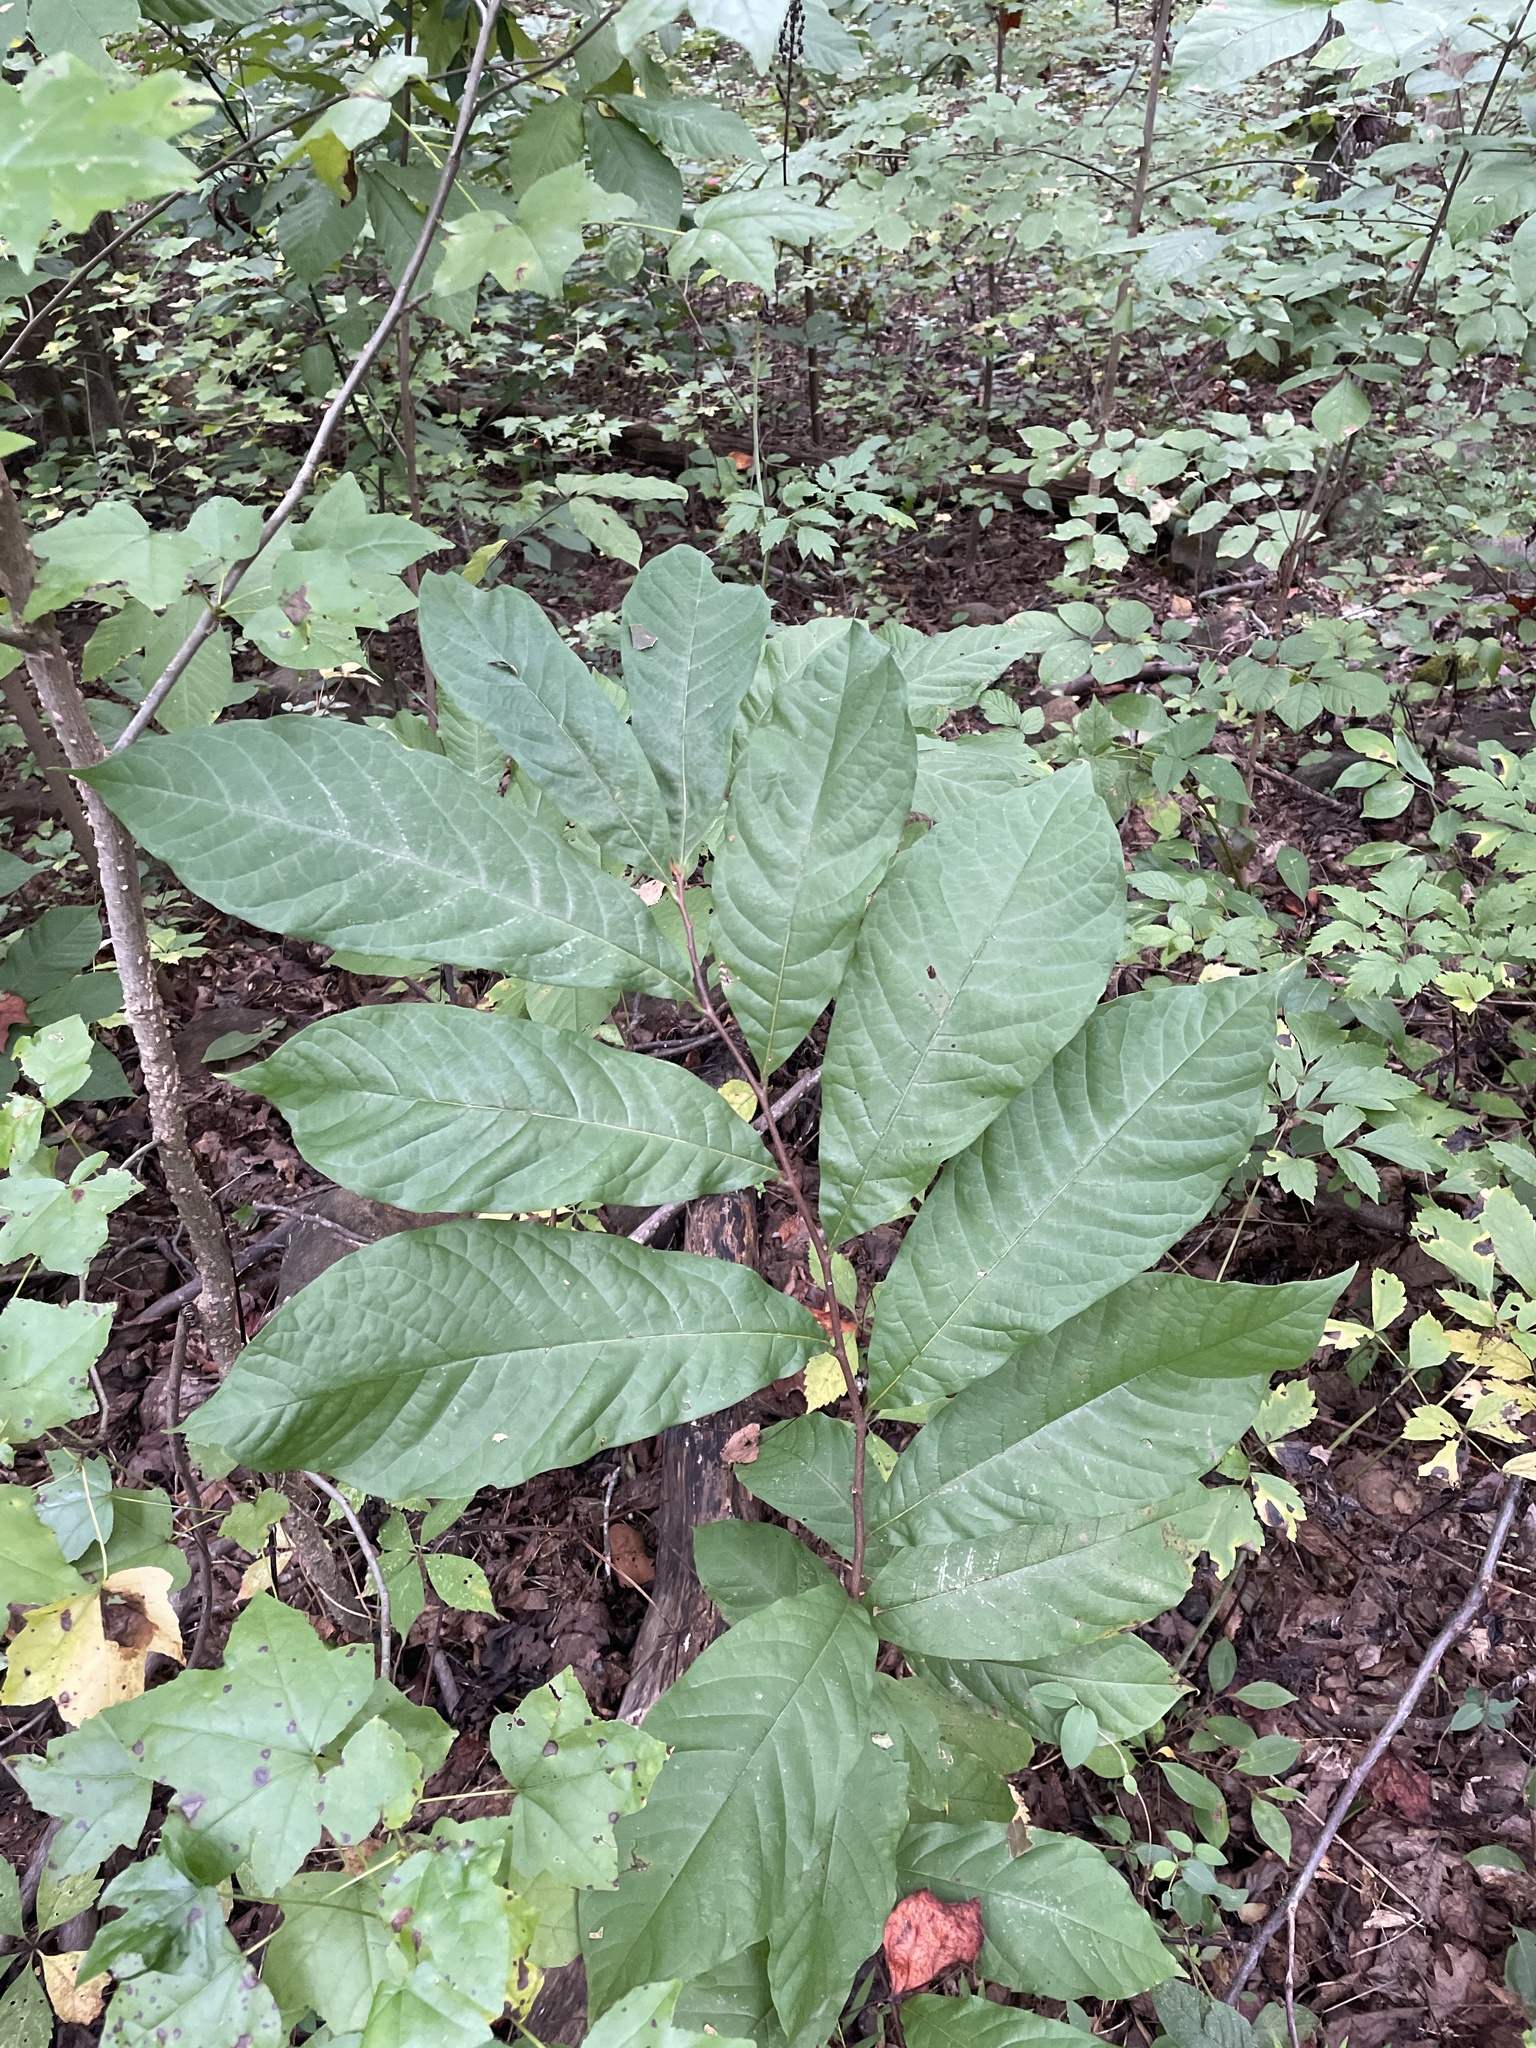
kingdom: Plantae
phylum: Tracheophyta
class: Magnoliopsida
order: Magnoliales
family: Annonaceae
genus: Asimina
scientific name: Asimina triloba
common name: Dog-banana
